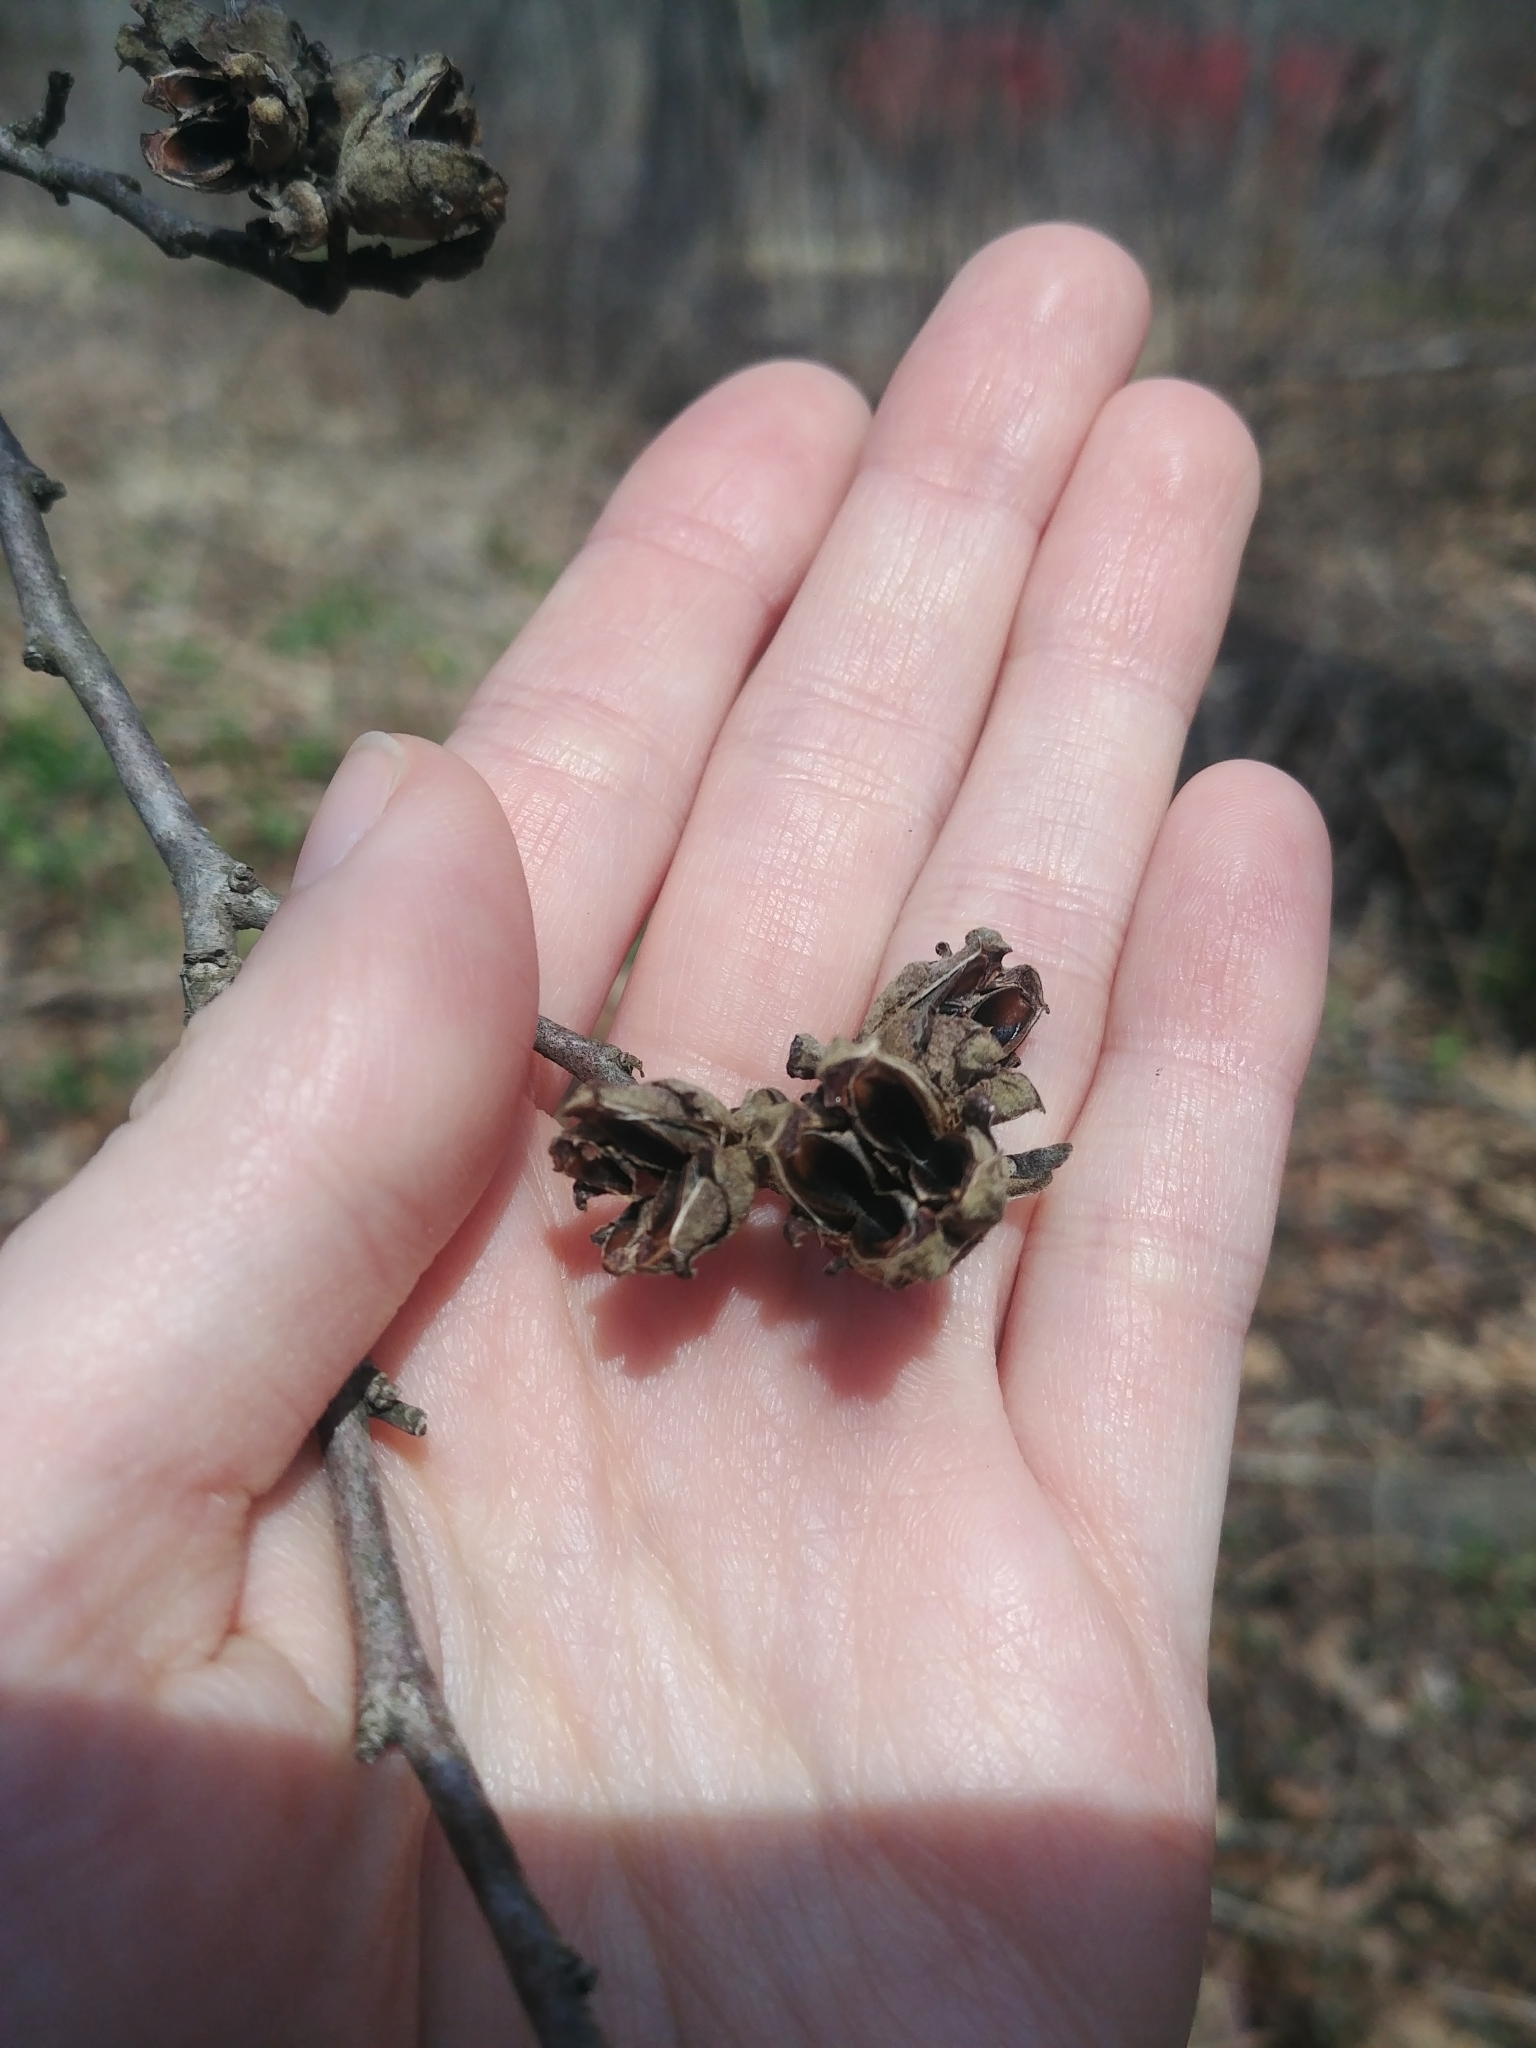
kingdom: Plantae
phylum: Tracheophyta
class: Magnoliopsida
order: Saxifragales
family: Hamamelidaceae
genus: Hamamelis
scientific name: Hamamelis virginiana
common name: Witch-hazel
